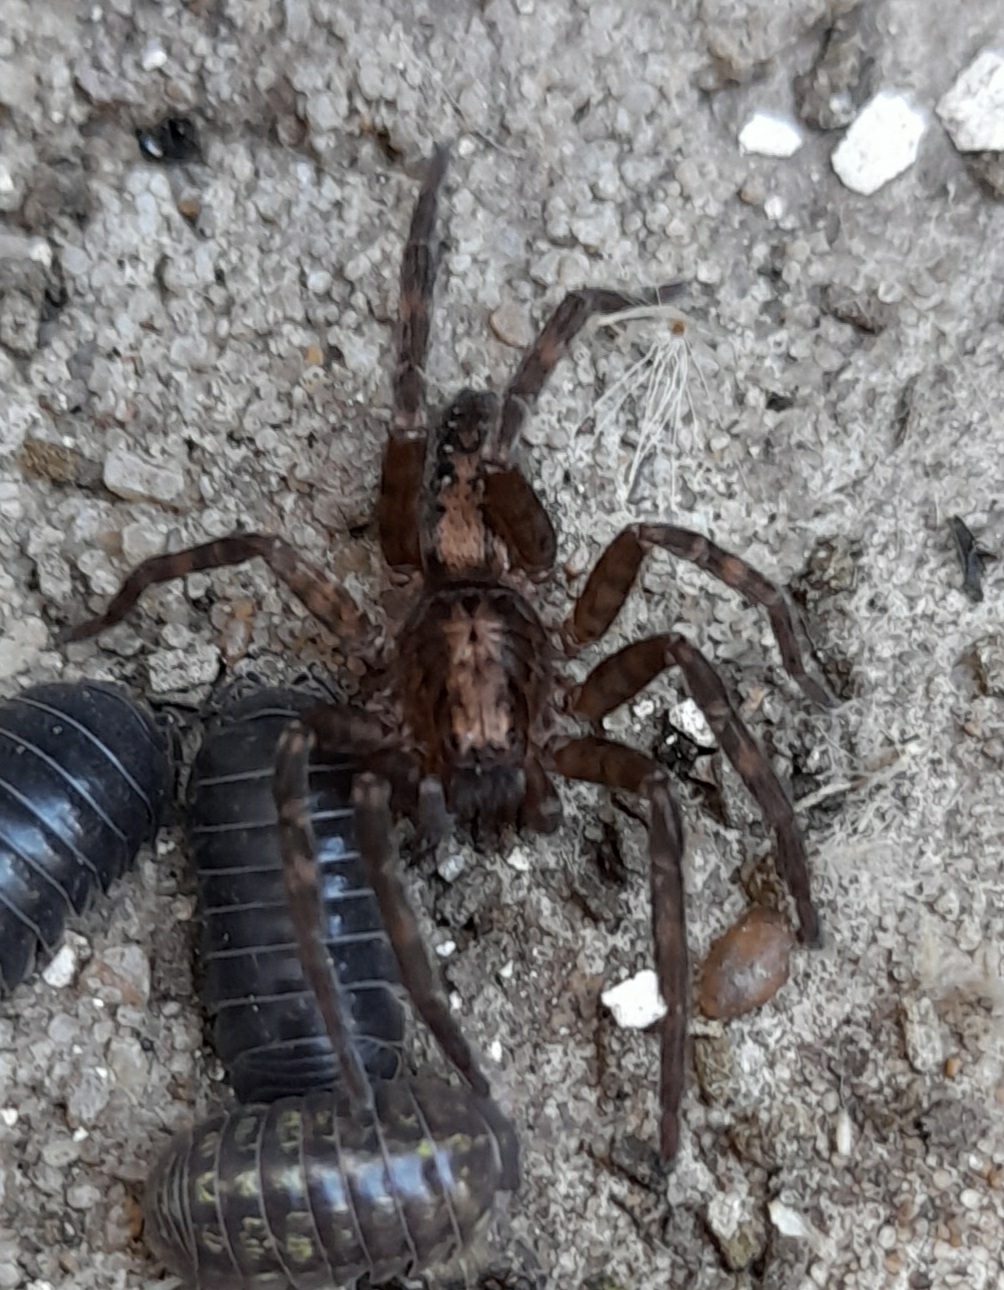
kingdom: Animalia
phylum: Arthropoda
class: Arachnida
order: Araneae
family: Ctenidae
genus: Asthenoctenus
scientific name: Asthenoctenus borellii
